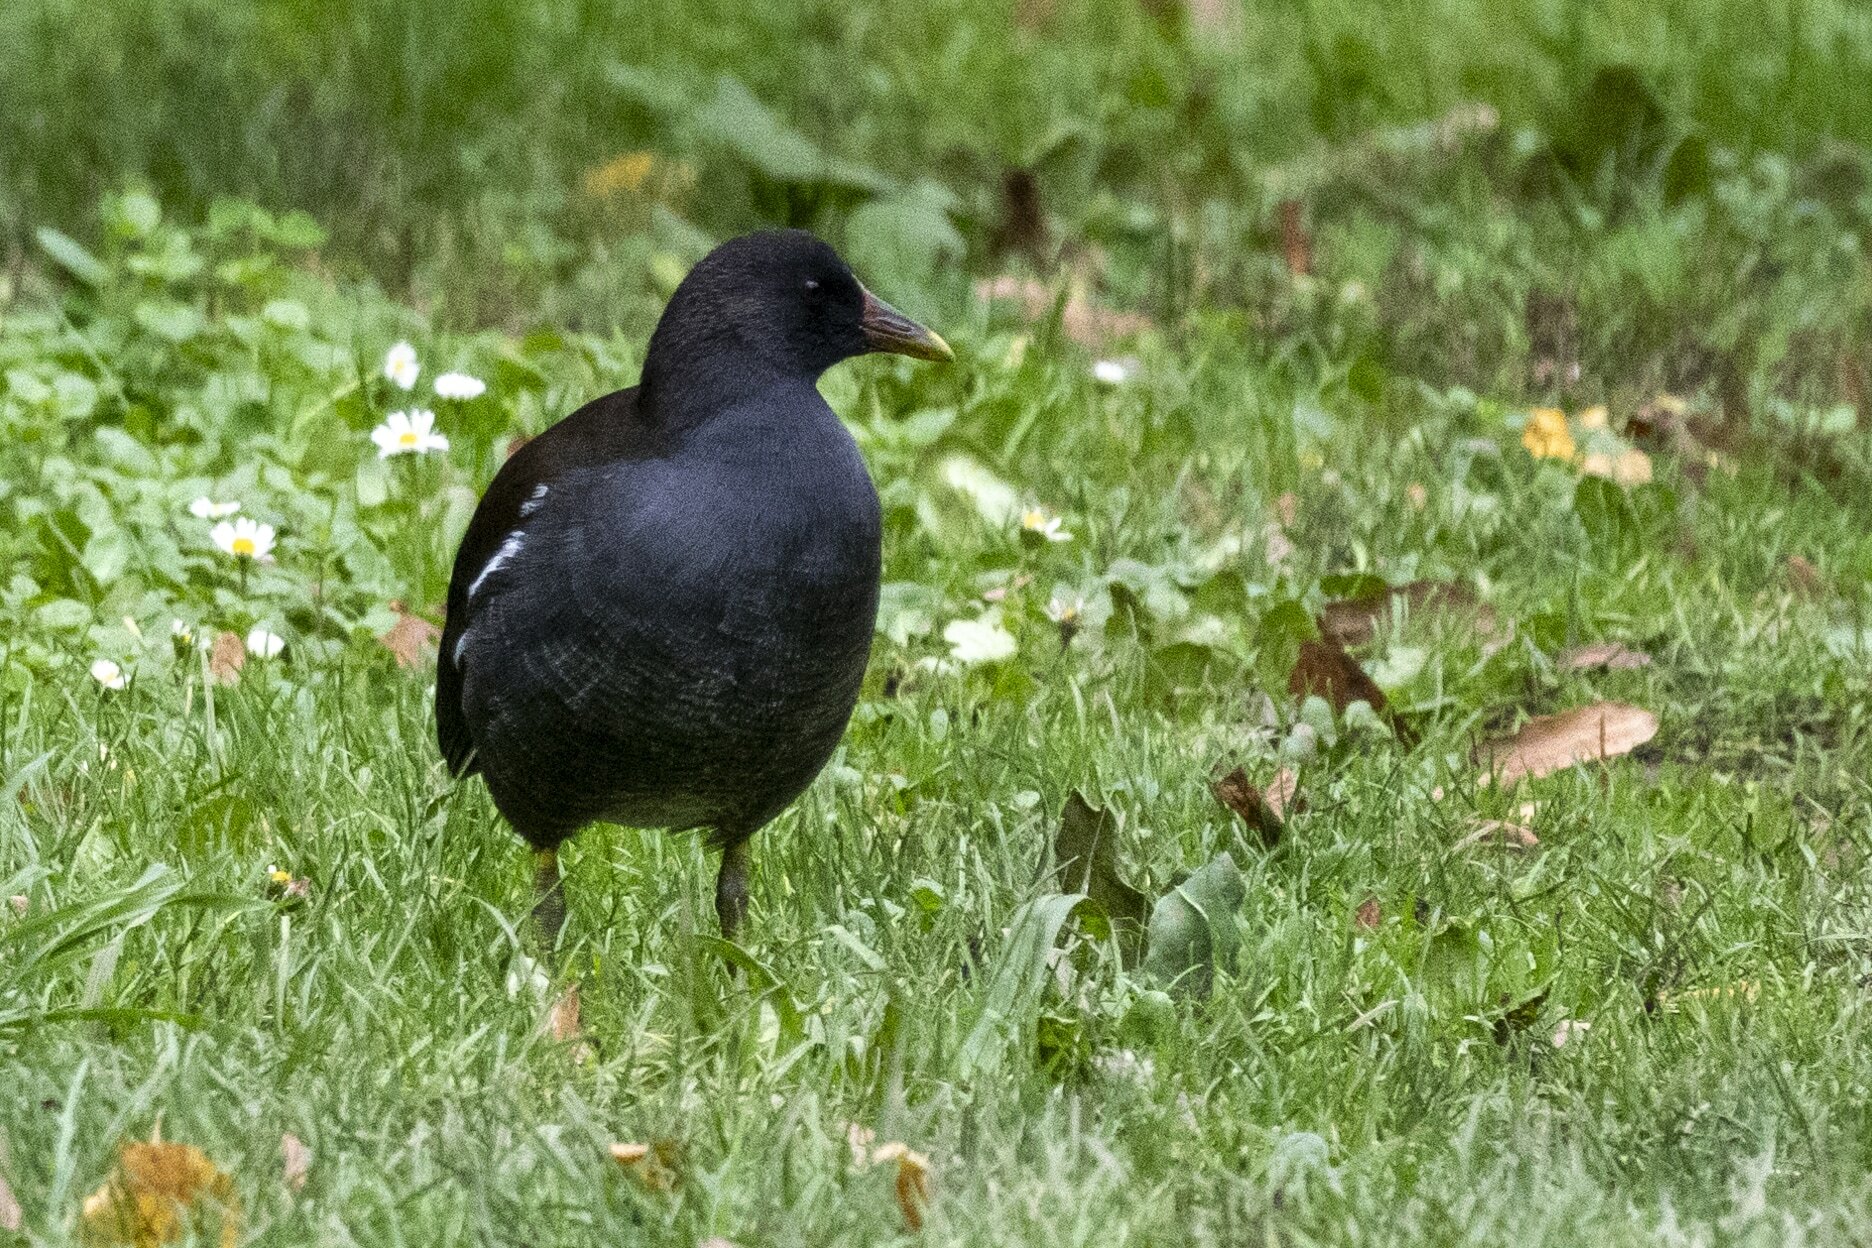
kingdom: Animalia
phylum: Chordata
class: Aves
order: Gruiformes
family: Rallidae
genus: Gallinula
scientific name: Gallinula chloropus
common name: Common moorhen
